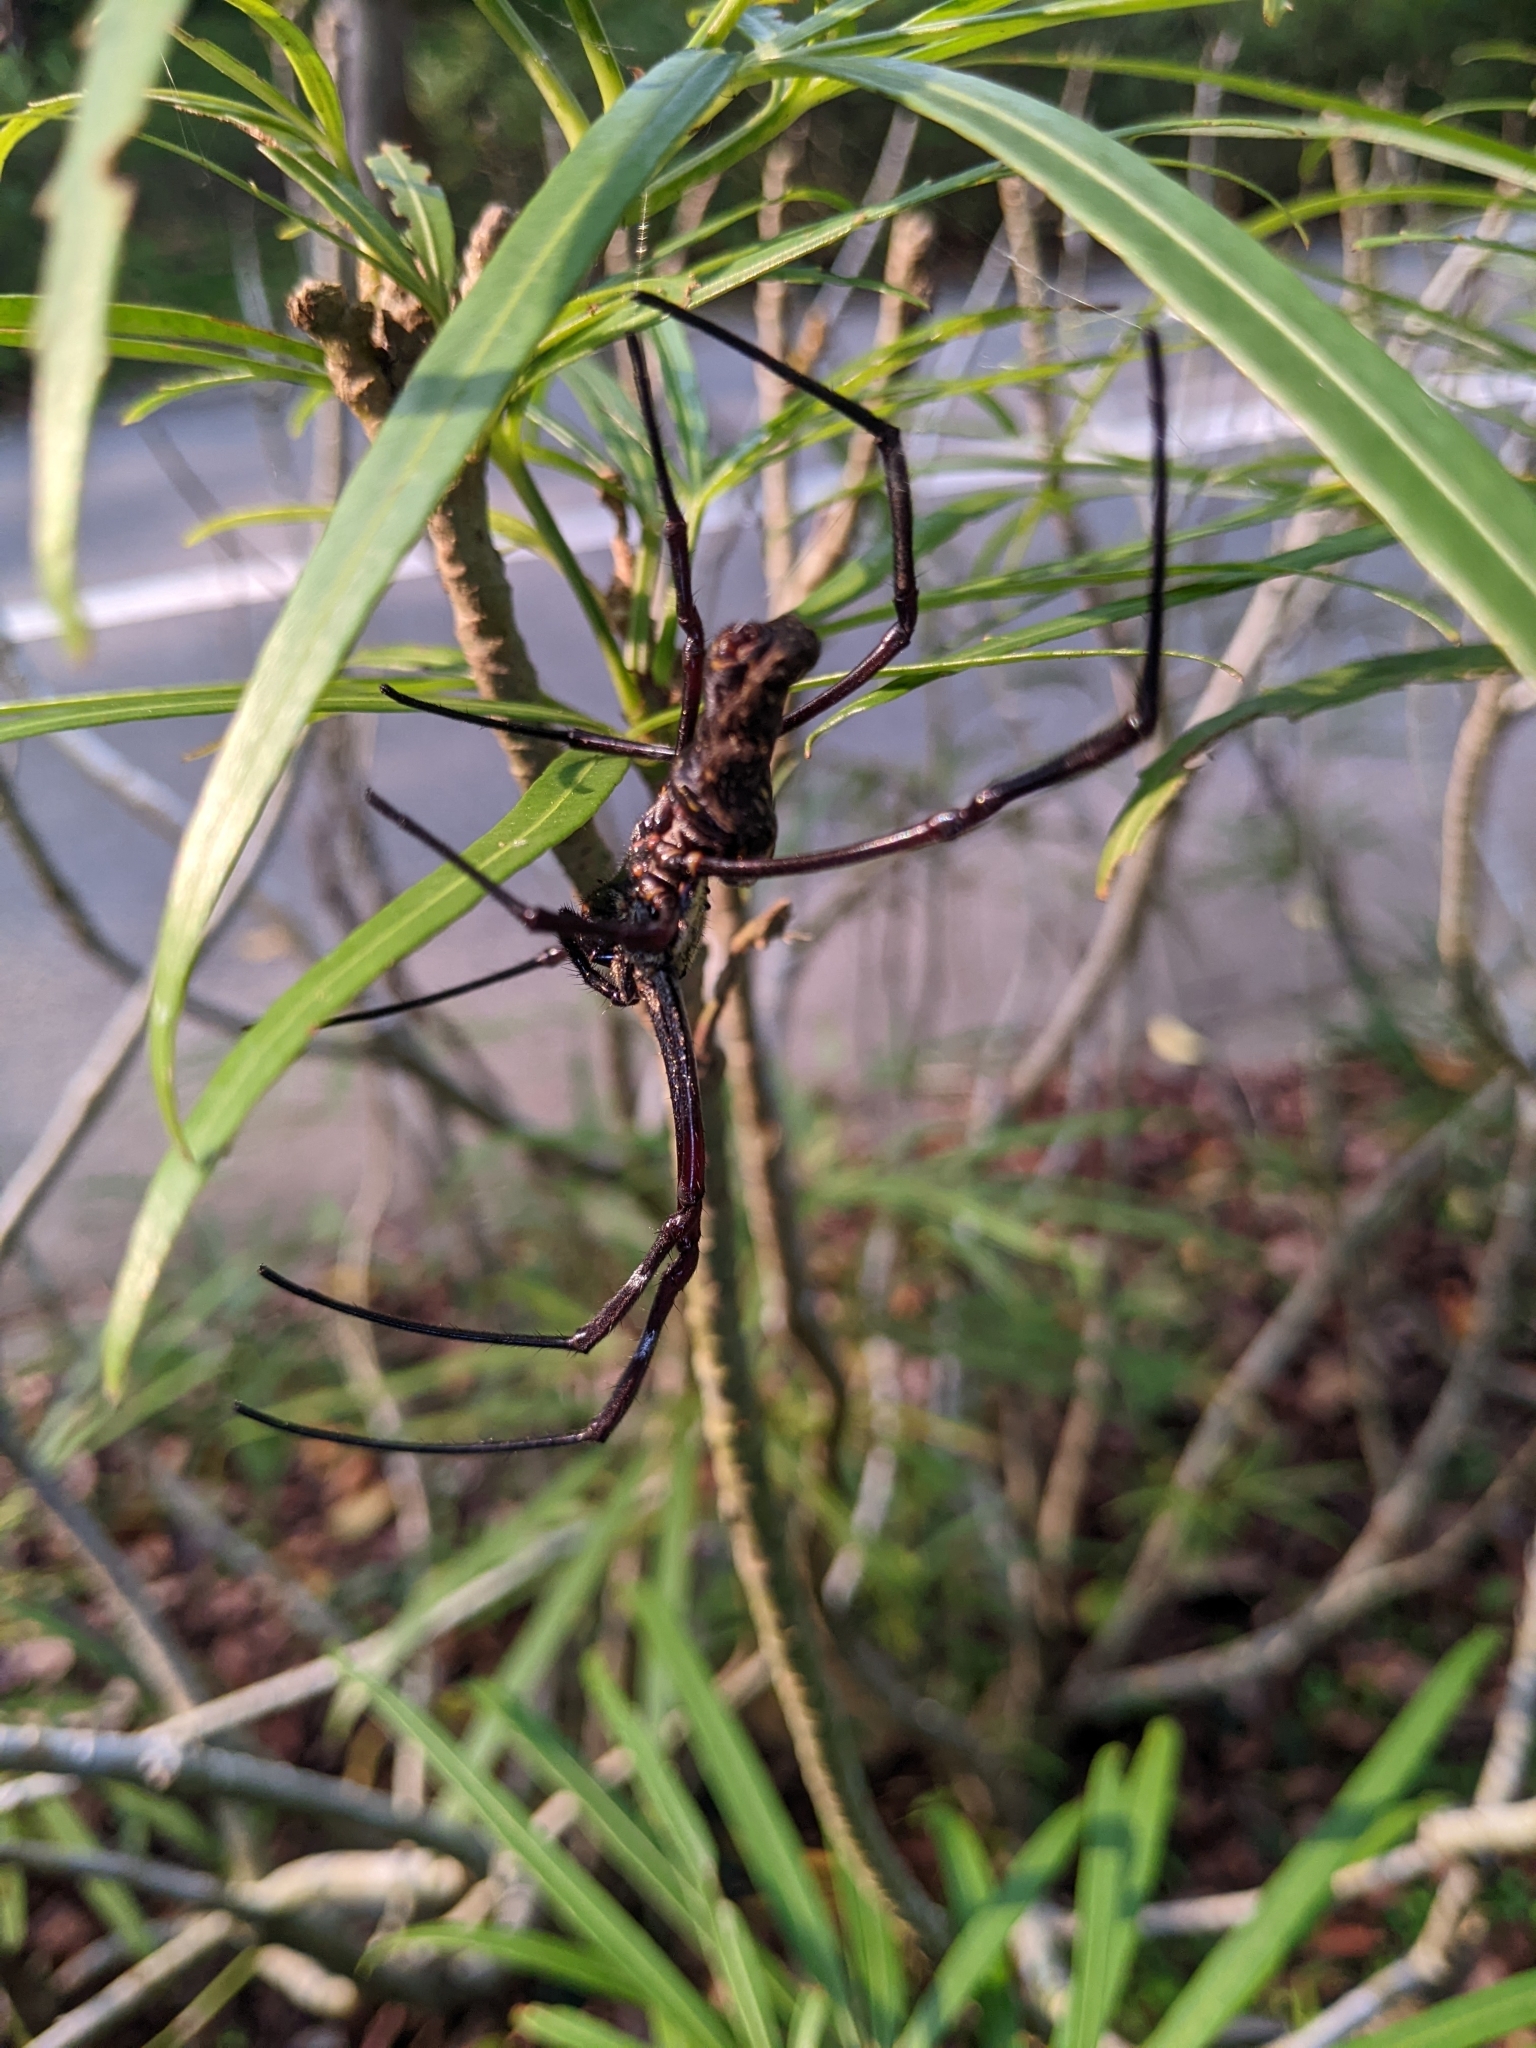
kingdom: Animalia
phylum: Arthropoda
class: Arachnida
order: Araneae
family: Araneidae
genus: Trichonephila
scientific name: Trichonephila antipodiana
